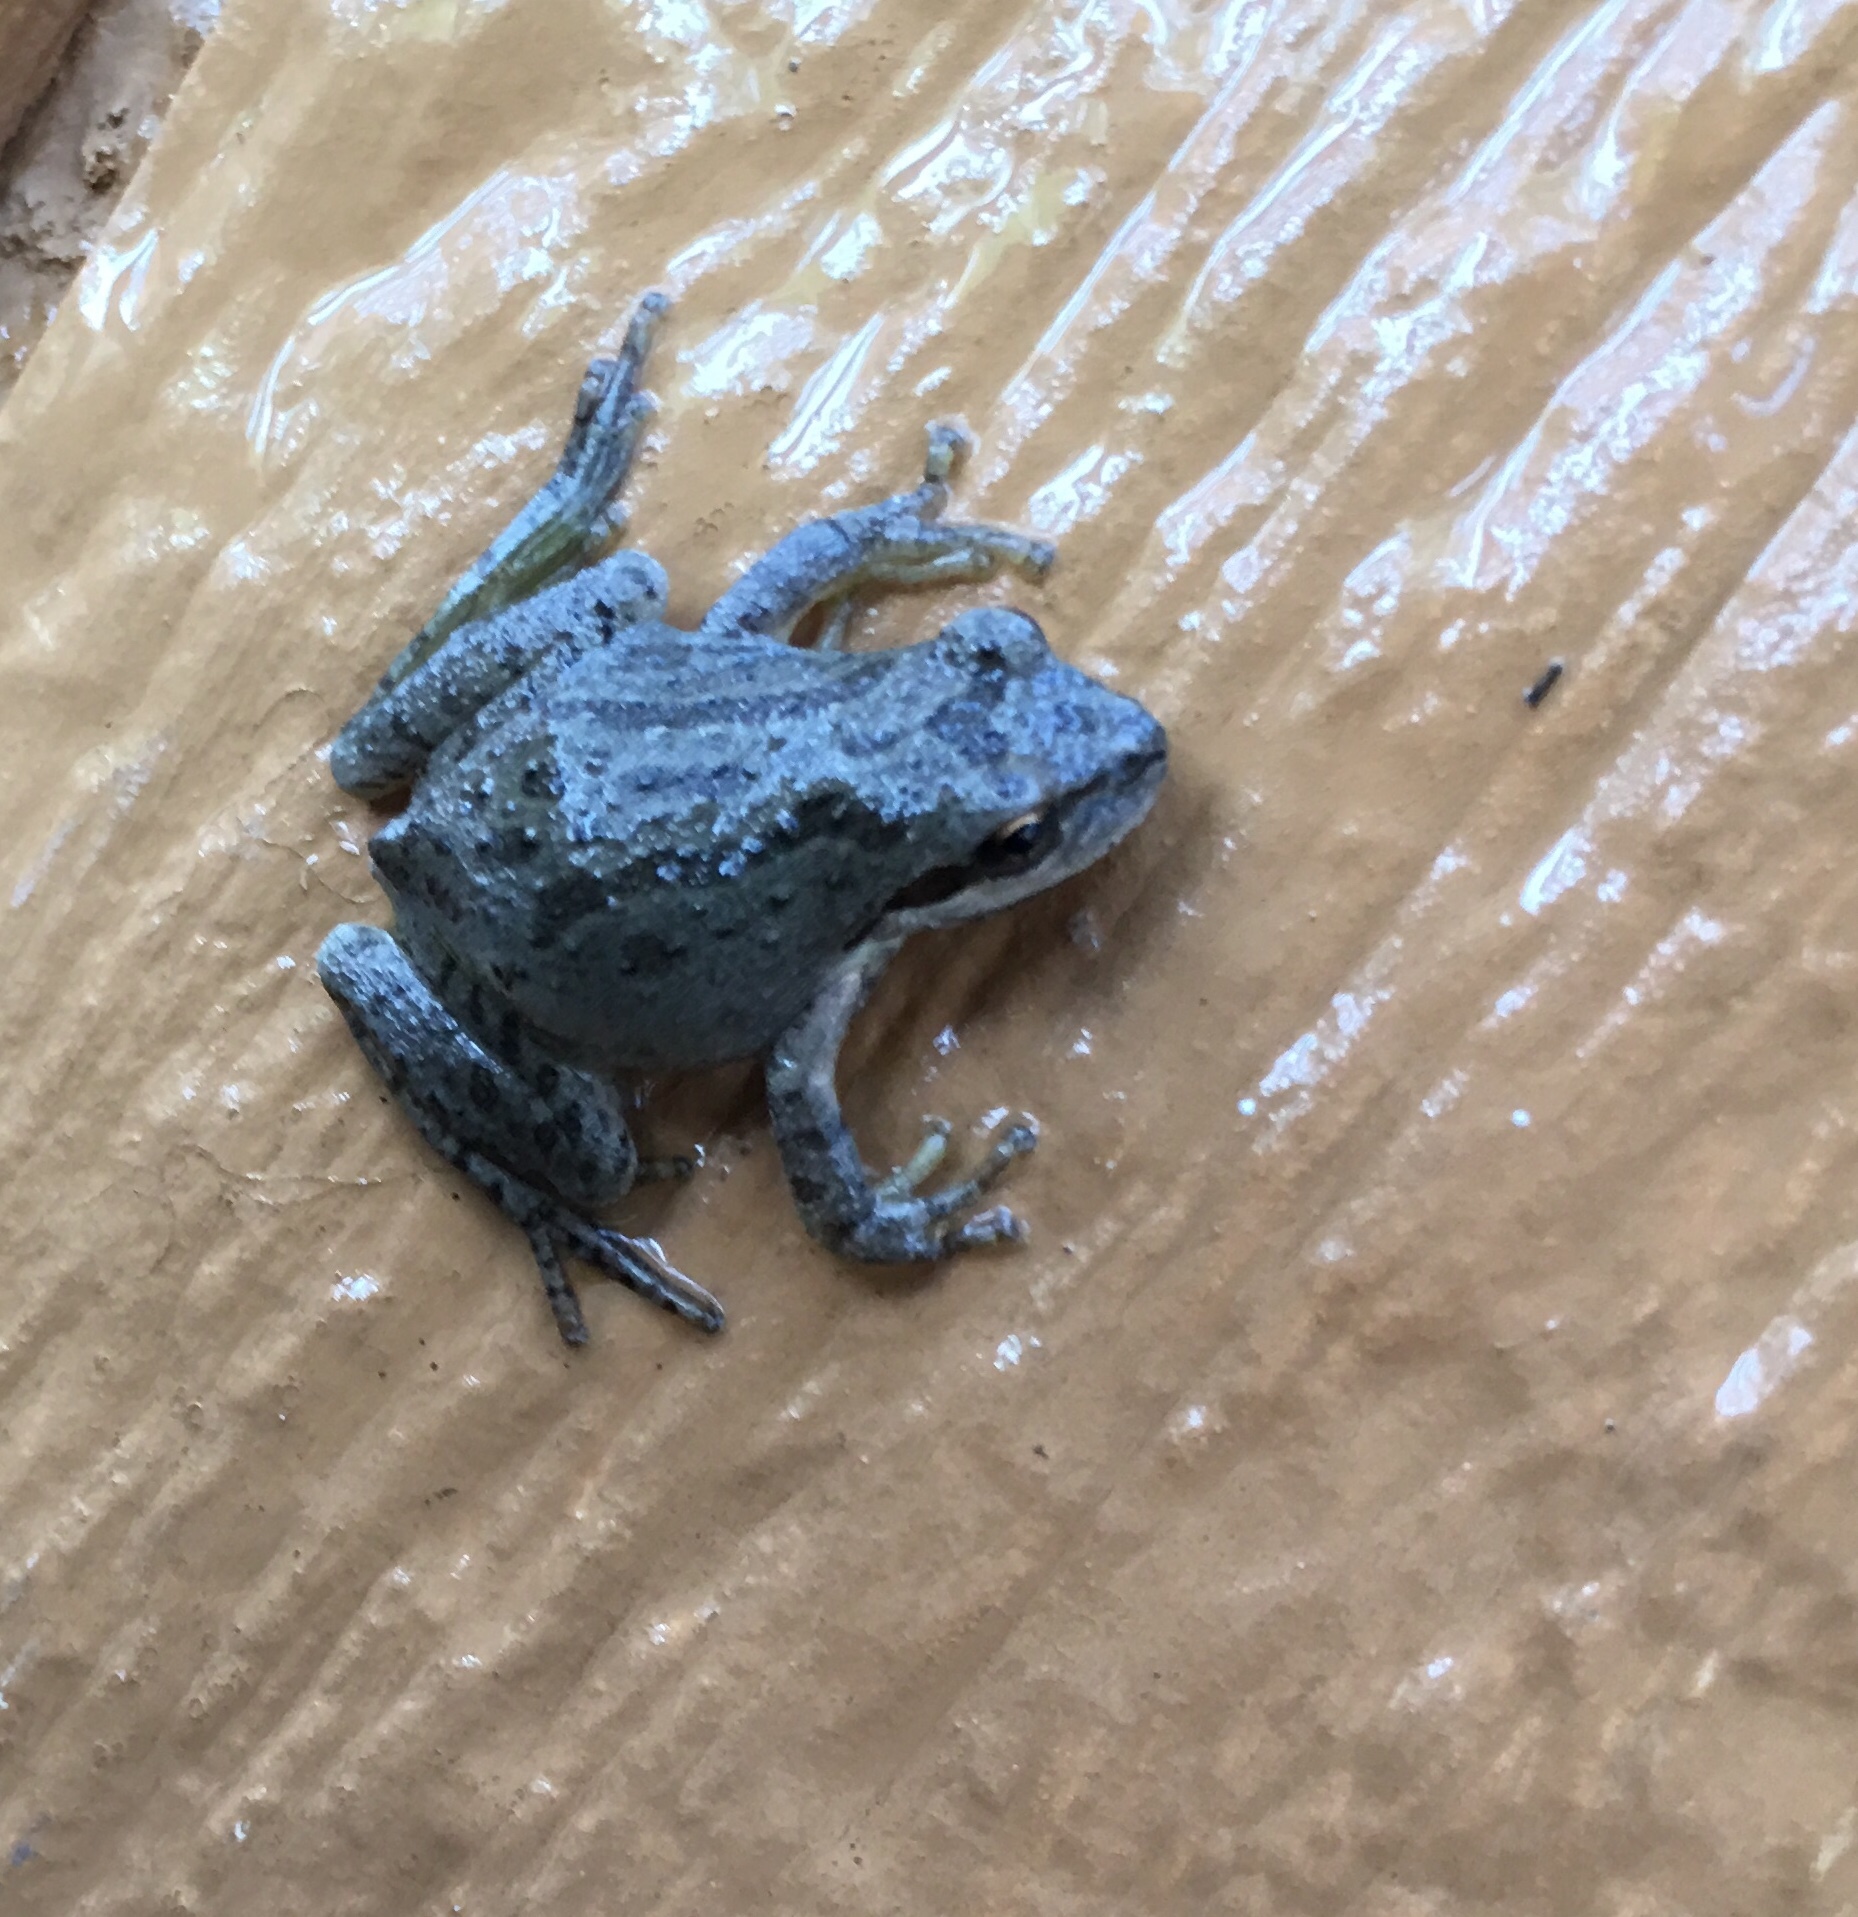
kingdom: Animalia
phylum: Chordata
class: Amphibia
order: Anura
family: Hylidae
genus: Pseudacris
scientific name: Pseudacris regilla
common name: Pacific chorus frog
